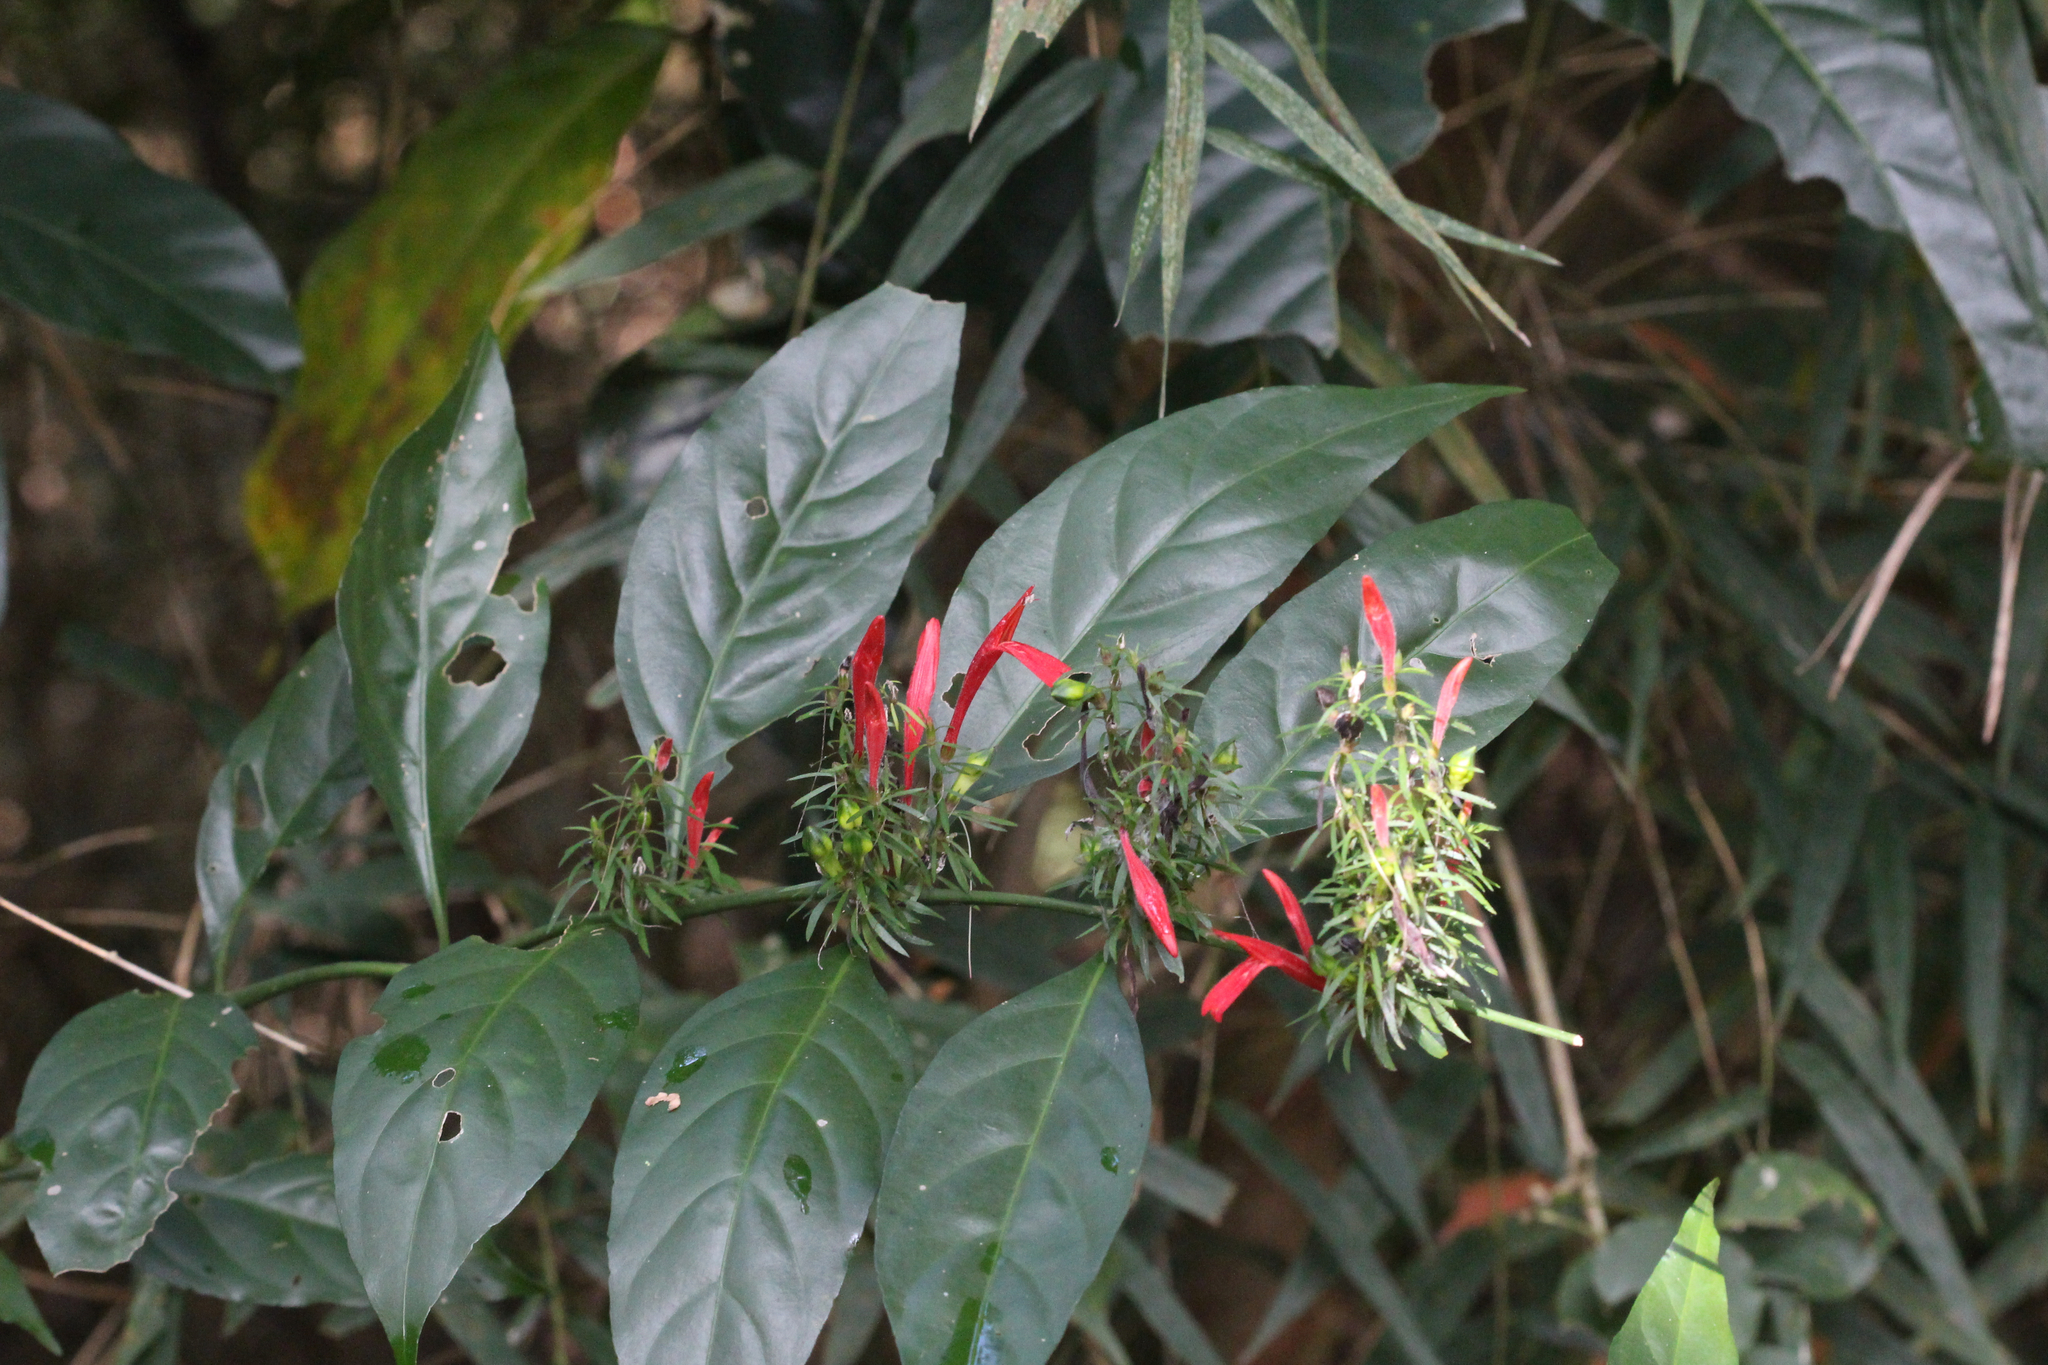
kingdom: Plantae
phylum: Tracheophyta
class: Magnoliopsida
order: Lamiales
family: Acanthaceae
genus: Justicia
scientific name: Justicia brasiliana
